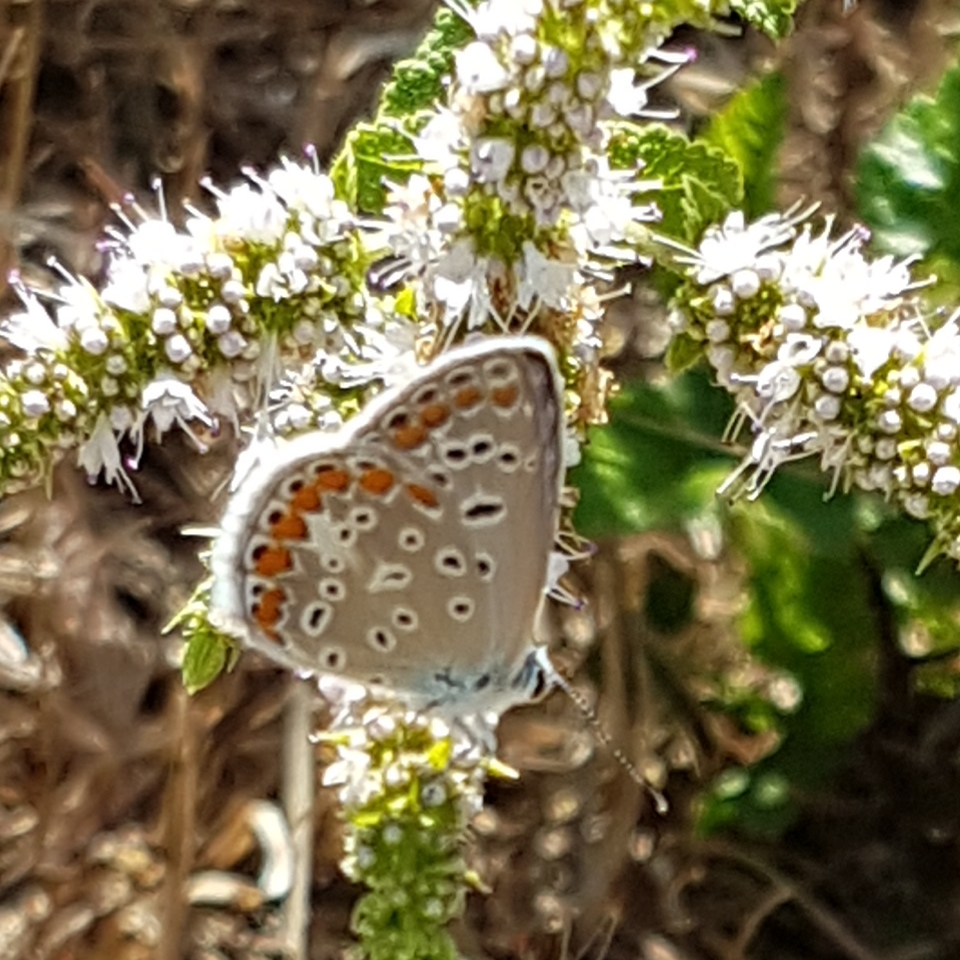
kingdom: Animalia
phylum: Arthropoda
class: Insecta
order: Lepidoptera
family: Lycaenidae
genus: Polyommatus
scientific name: Polyommatus icarus
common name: Common blue
